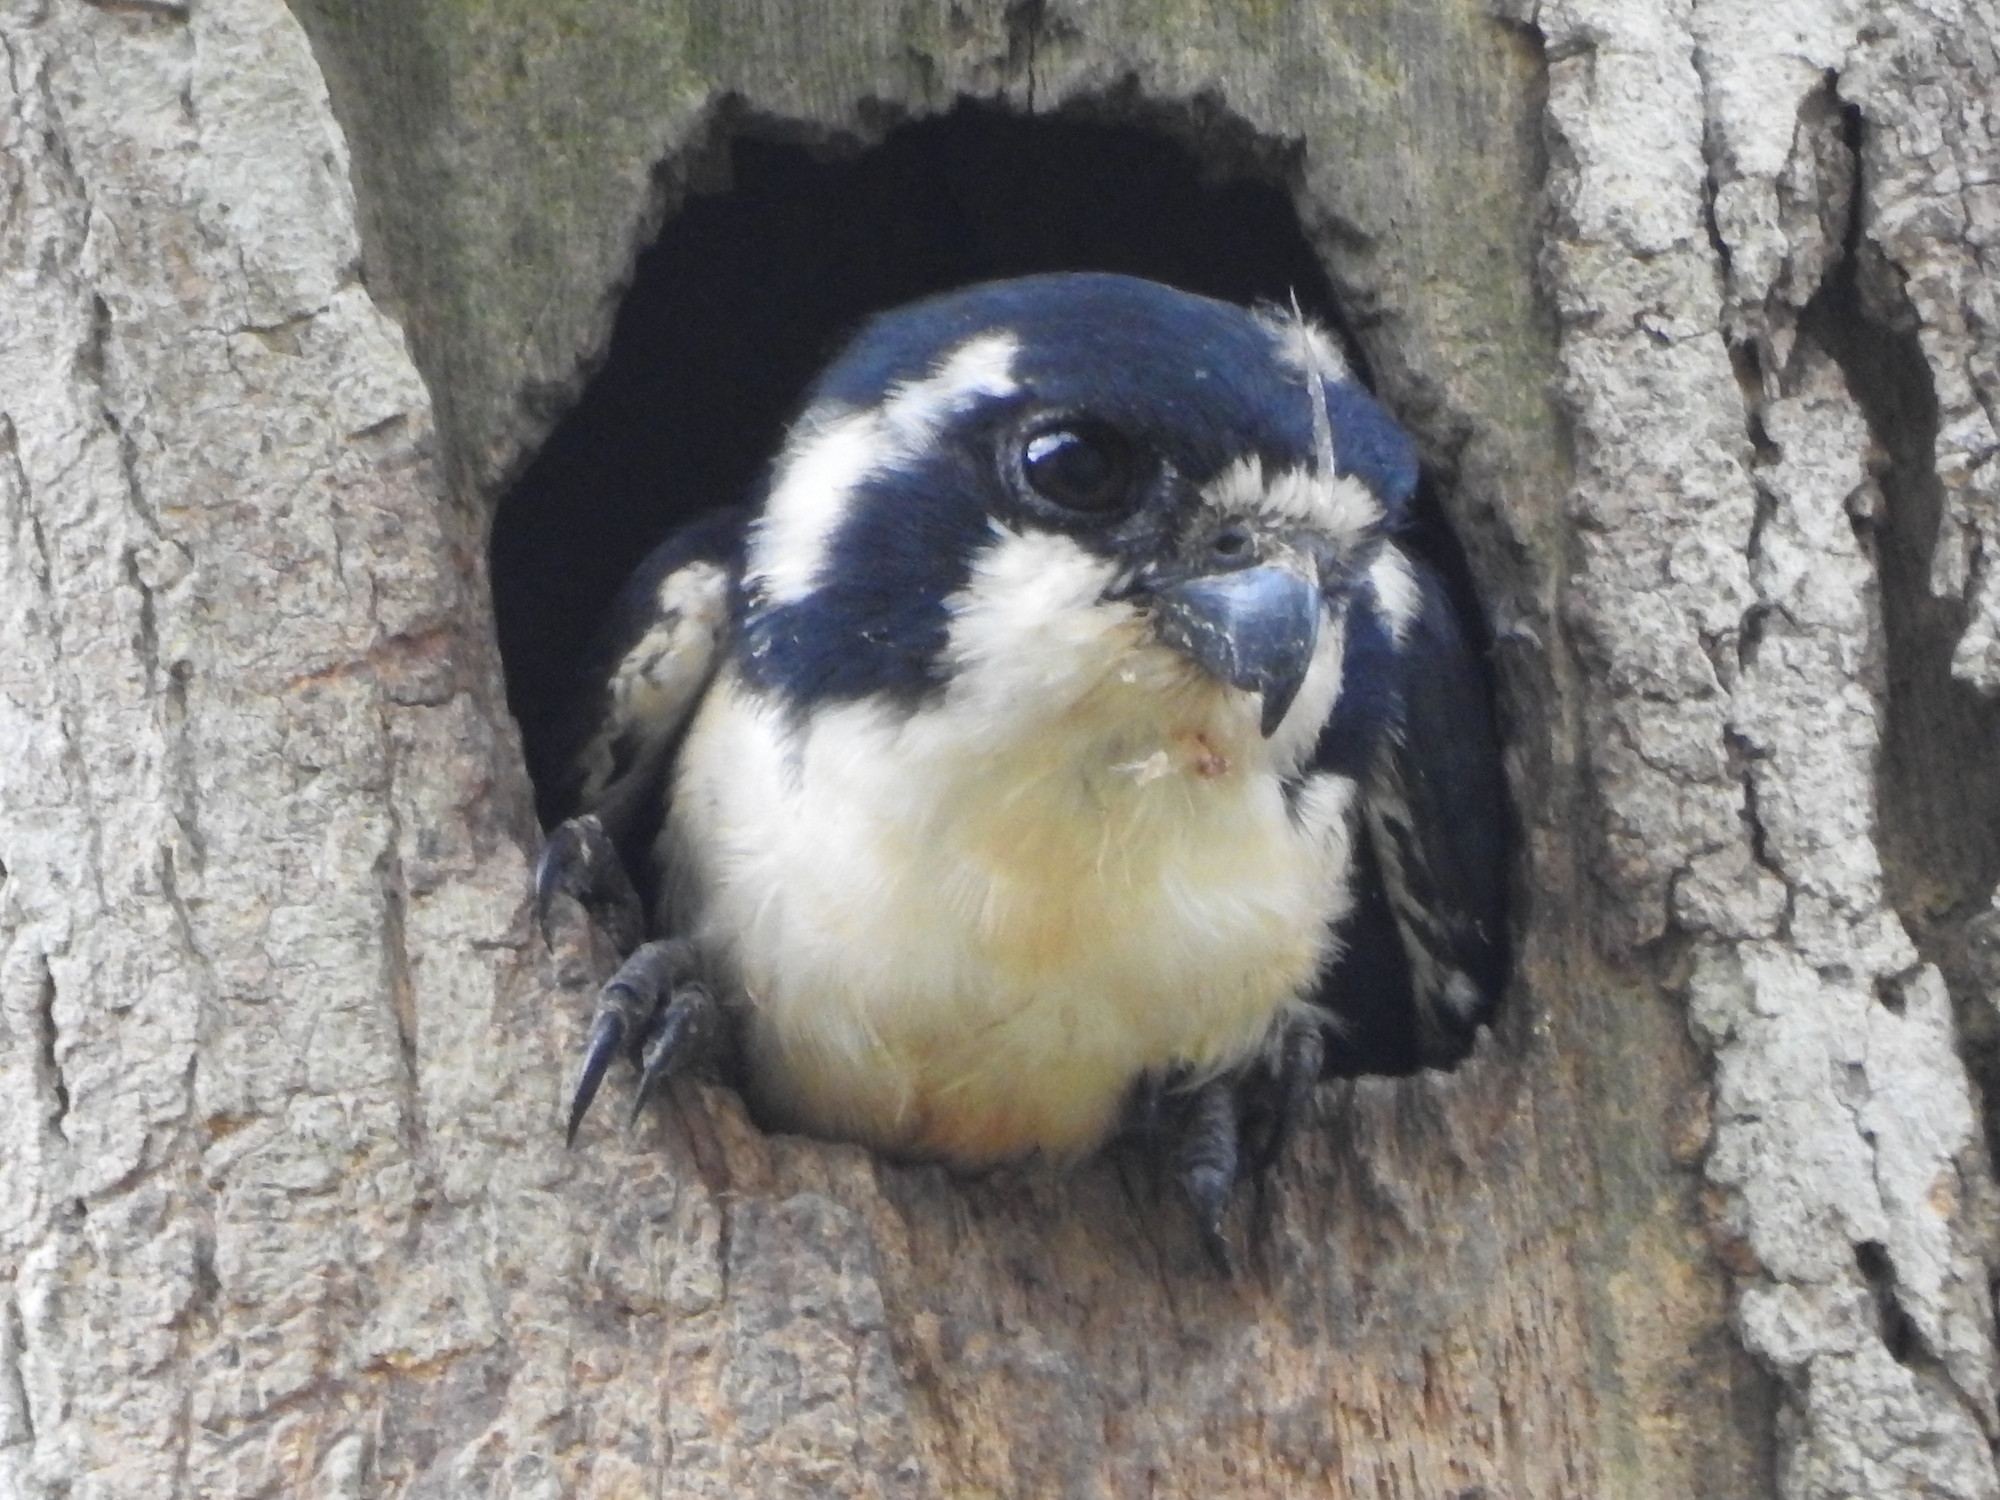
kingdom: Animalia
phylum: Chordata
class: Aves
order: Falconiformes
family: Falconidae
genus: Microhierax
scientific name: Microhierax fringillarius
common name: Black-thighed falconet
